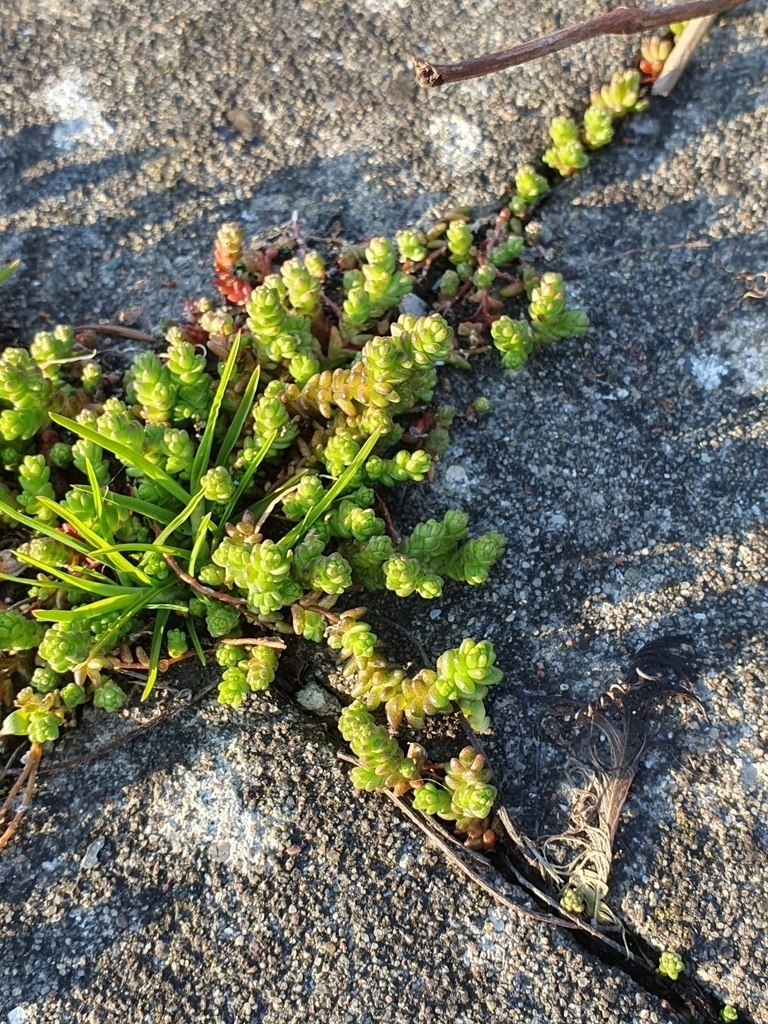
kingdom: Plantae
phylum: Tracheophyta
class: Magnoliopsida
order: Saxifragales
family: Crassulaceae
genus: Sedum
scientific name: Sedum acre
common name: Biting stonecrop
